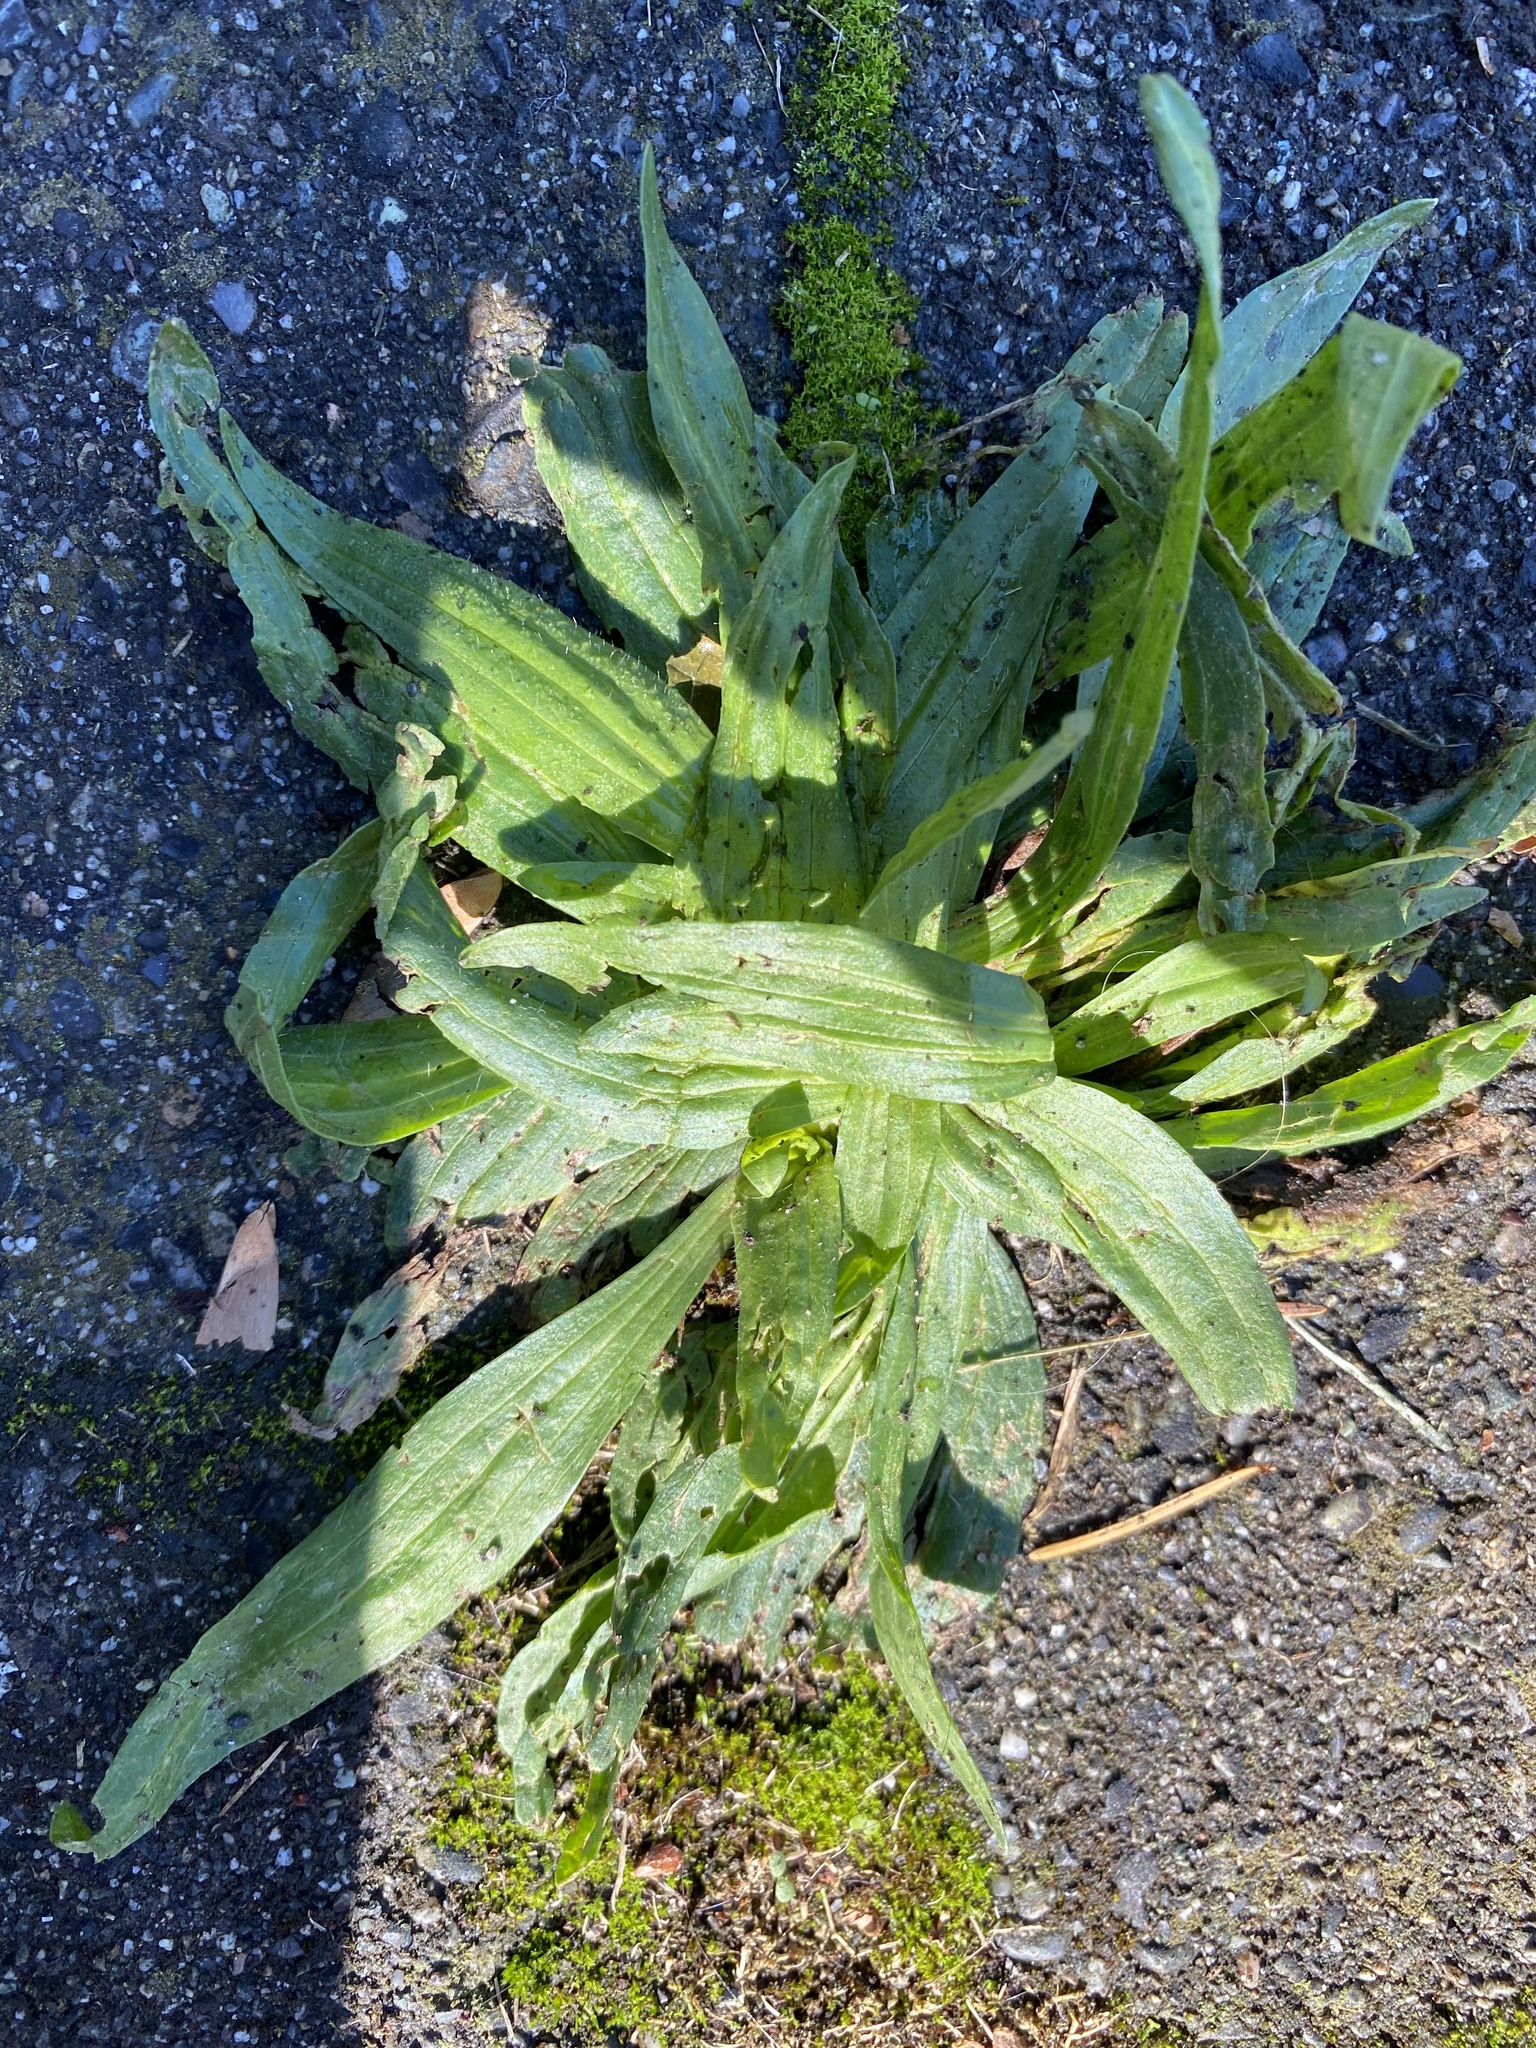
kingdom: Plantae
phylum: Tracheophyta
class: Magnoliopsida
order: Lamiales
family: Plantaginaceae
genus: Plantago
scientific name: Plantago lanceolata
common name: Ribwort plantain
